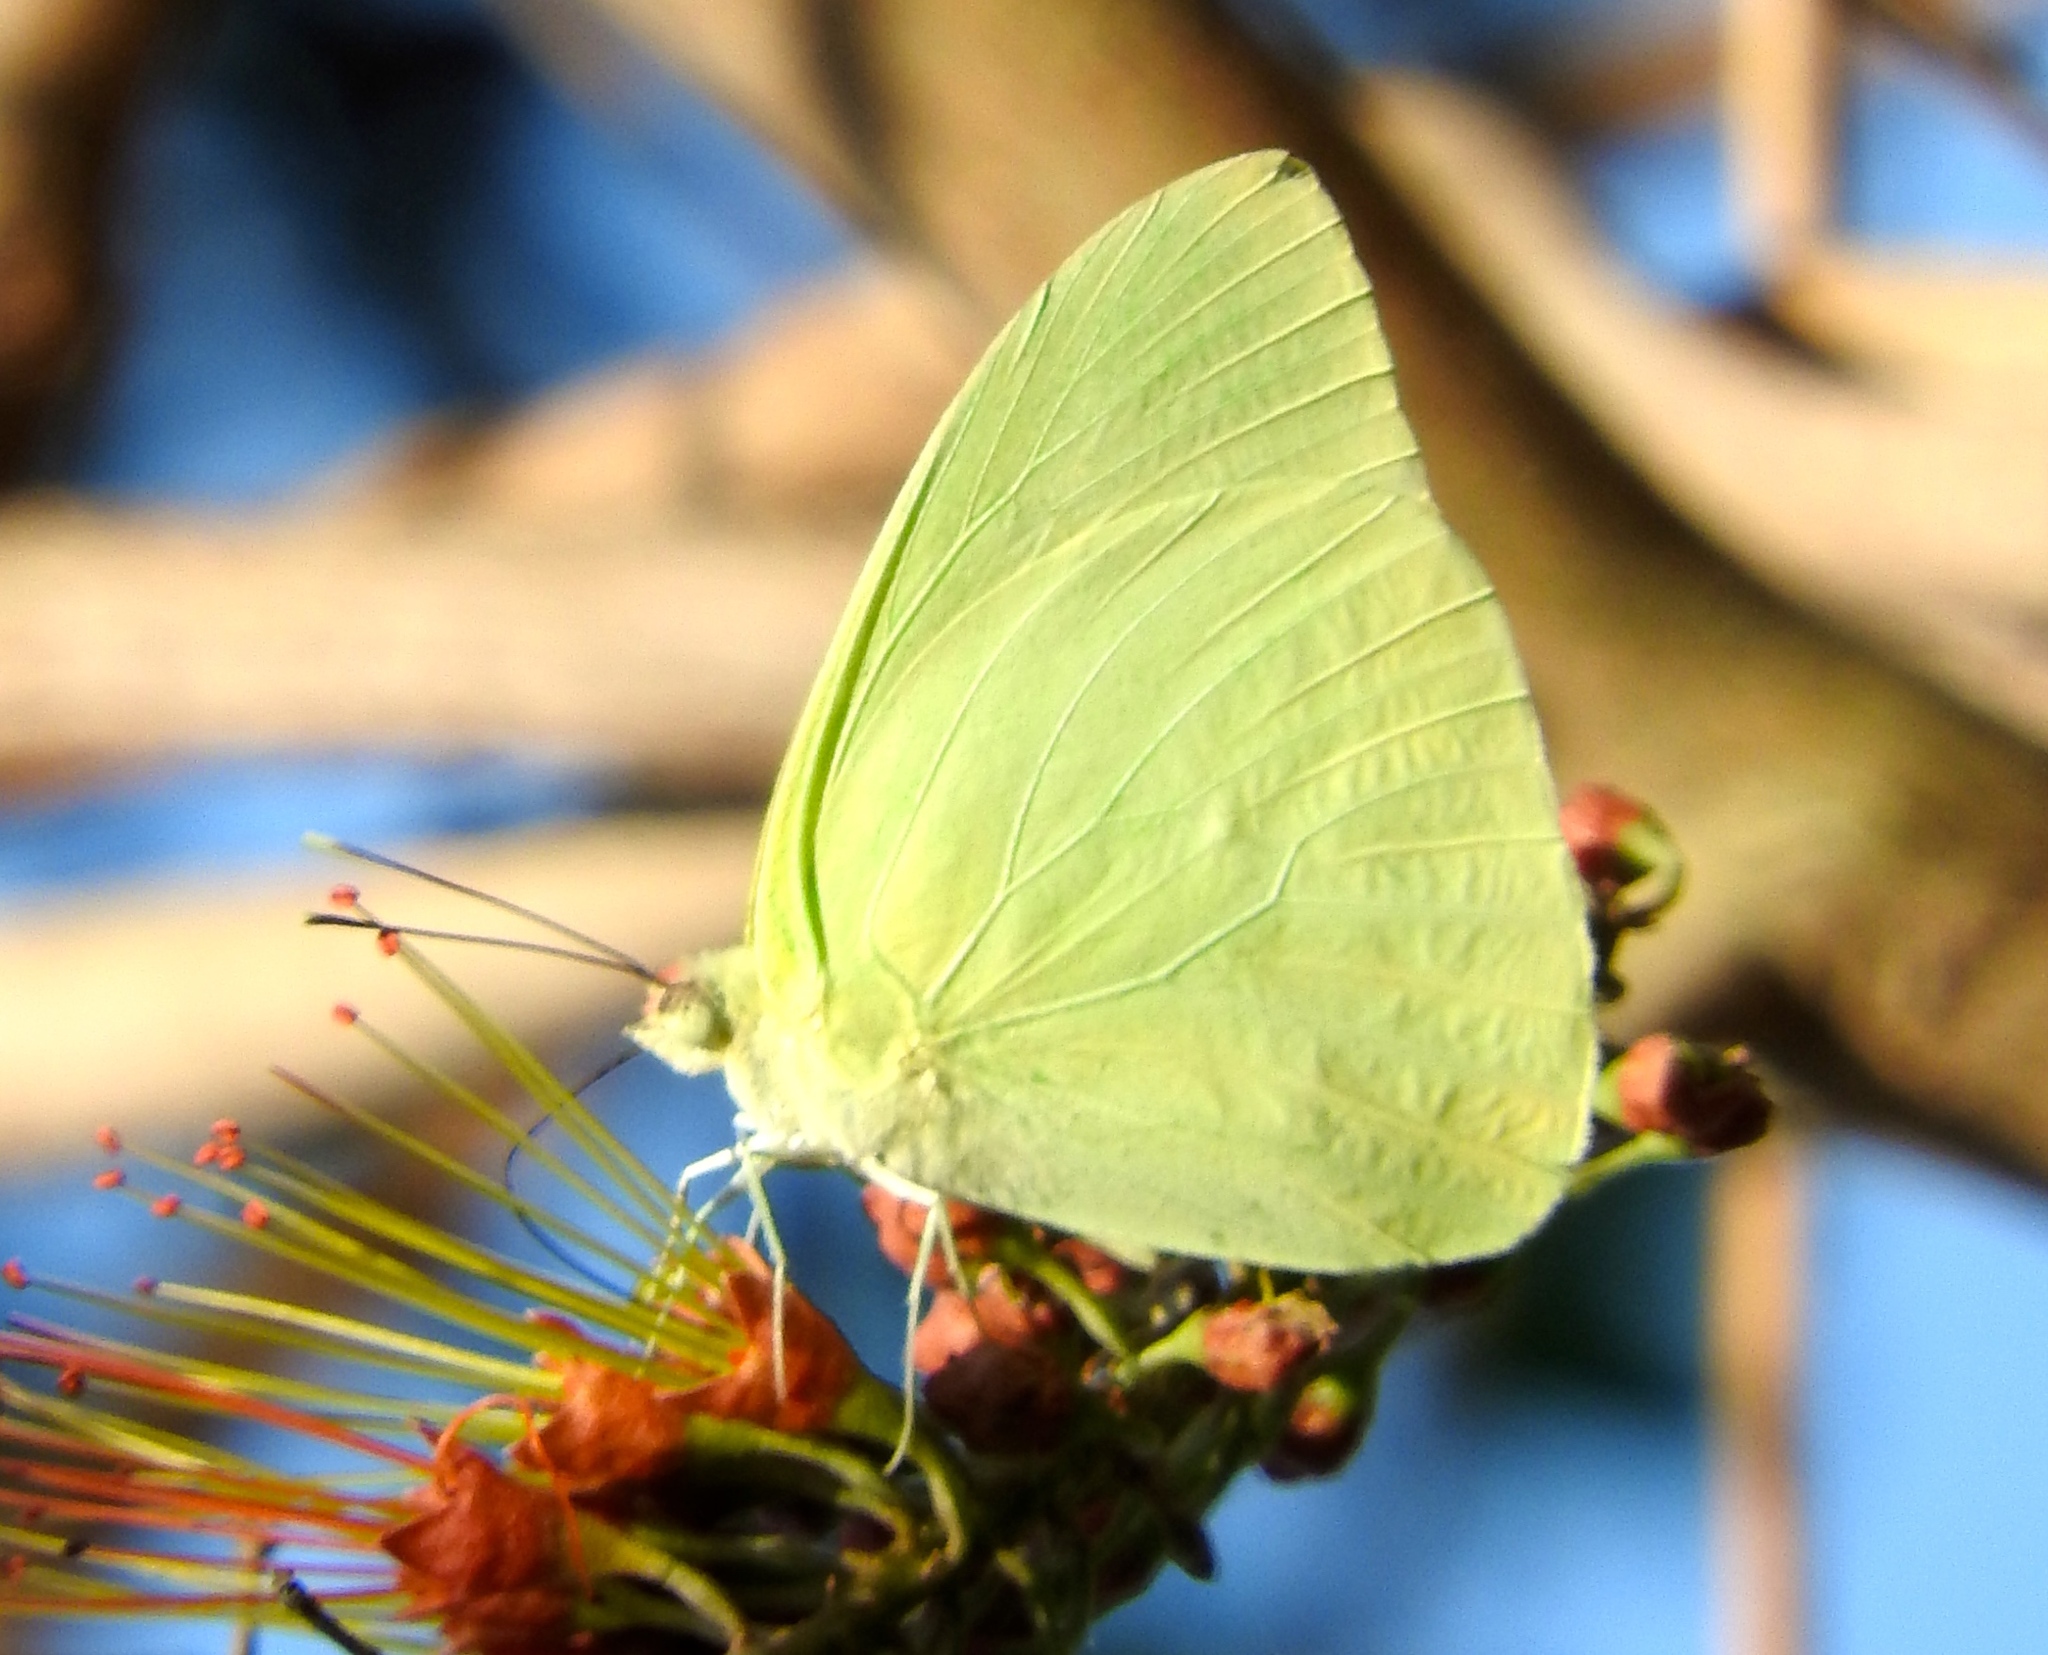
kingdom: Animalia
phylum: Arthropoda
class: Insecta
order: Lepidoptera
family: Pieridae
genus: Aphrissa
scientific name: Aphrissa statira
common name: Statira sulphur
